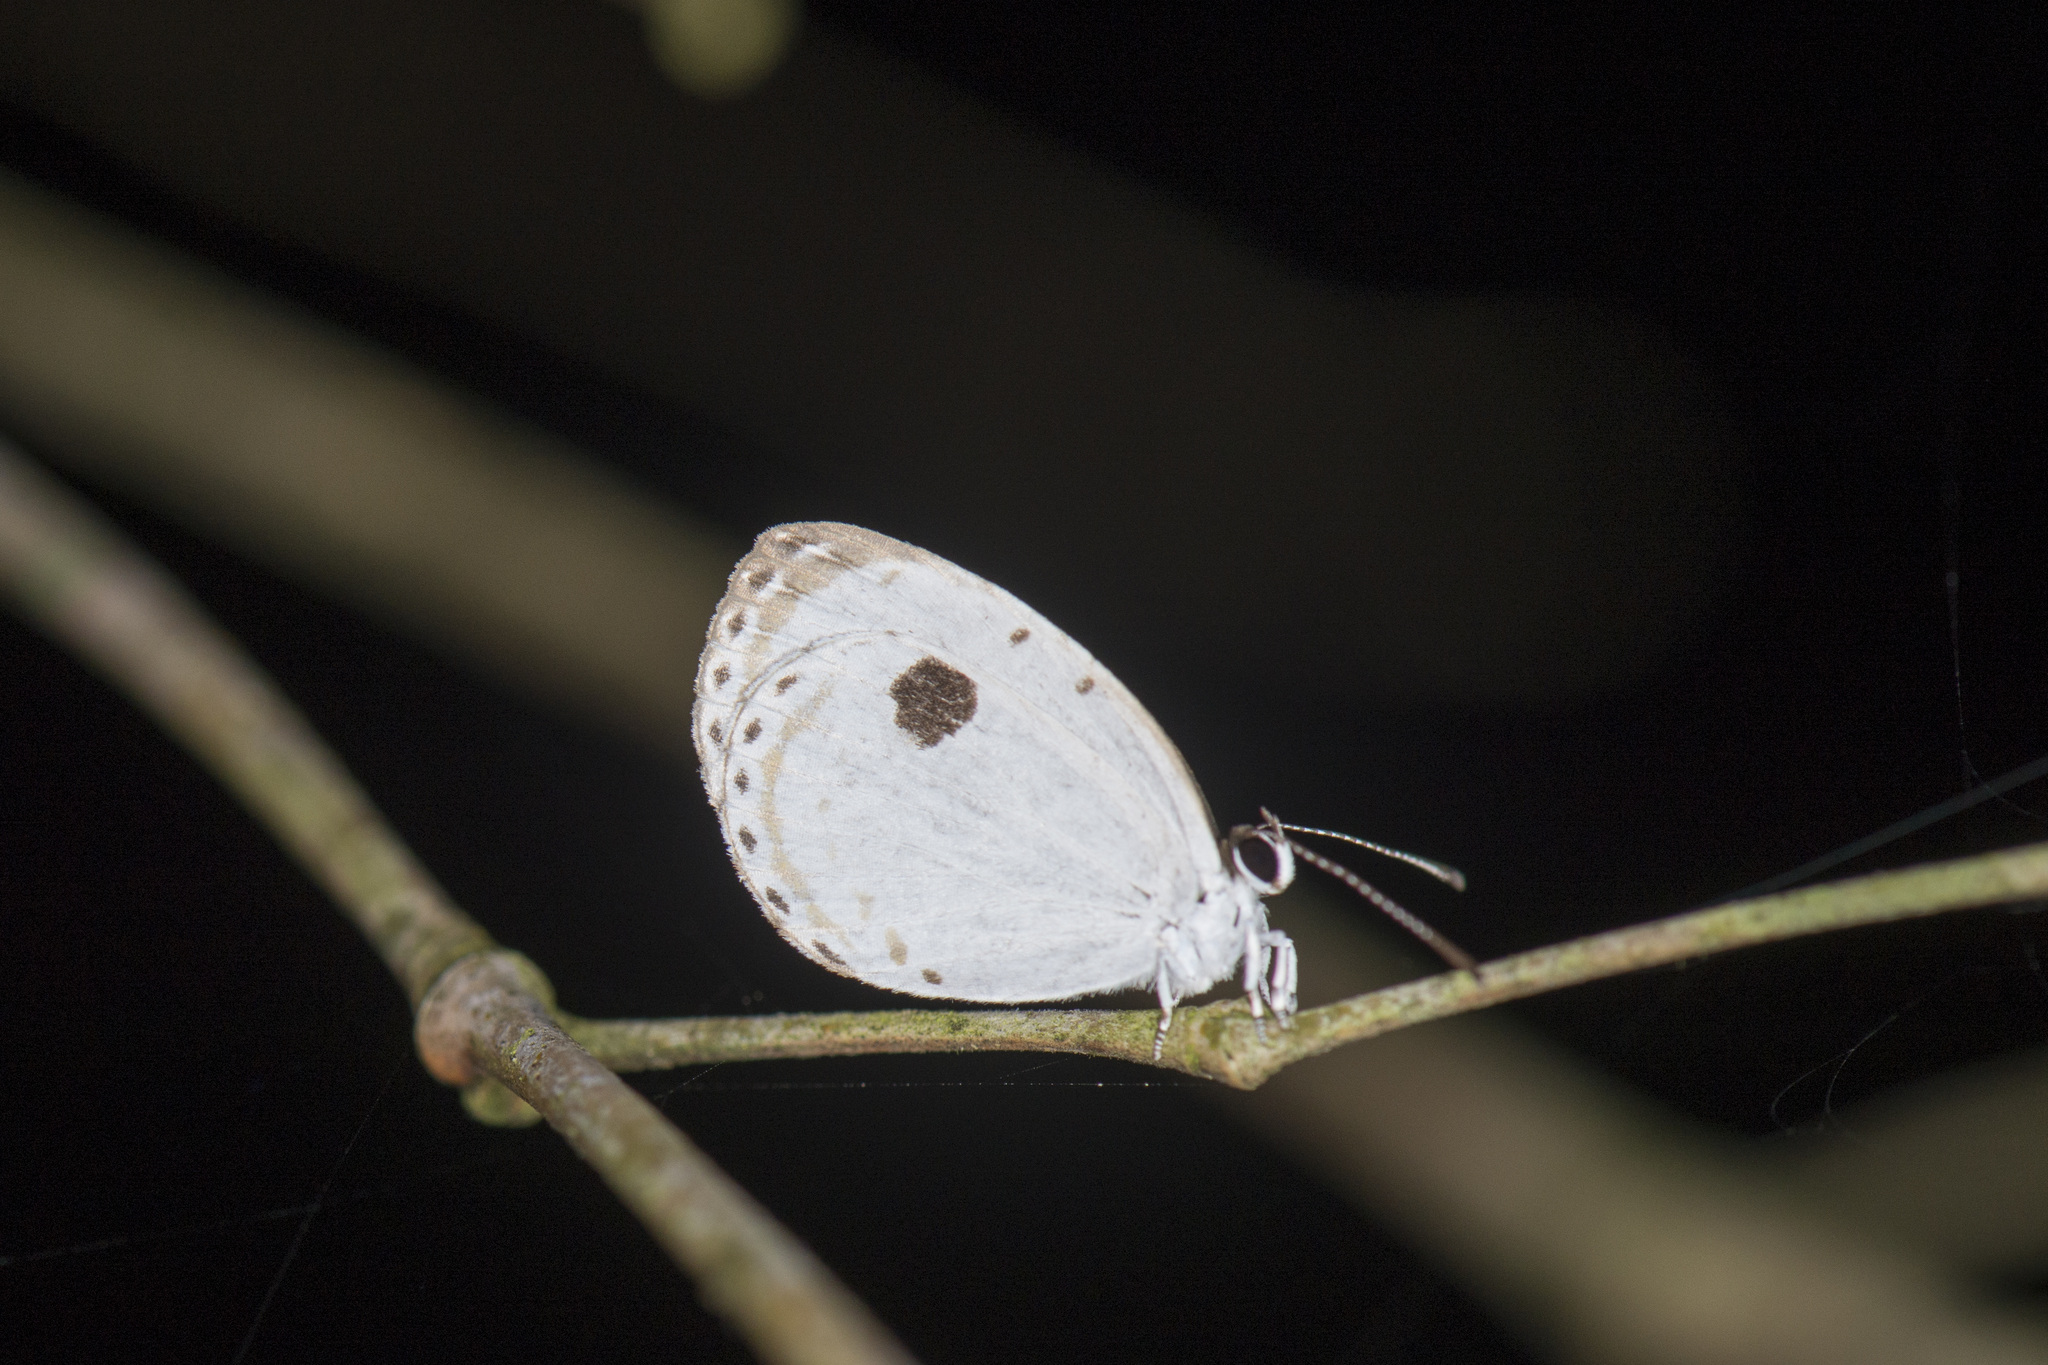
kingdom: Animalia
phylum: Arthropoda
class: Insecta
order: Lepidoptera
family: Lycaenidae
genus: Pithecops
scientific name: Pithecops corvus
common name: Forest quaker
